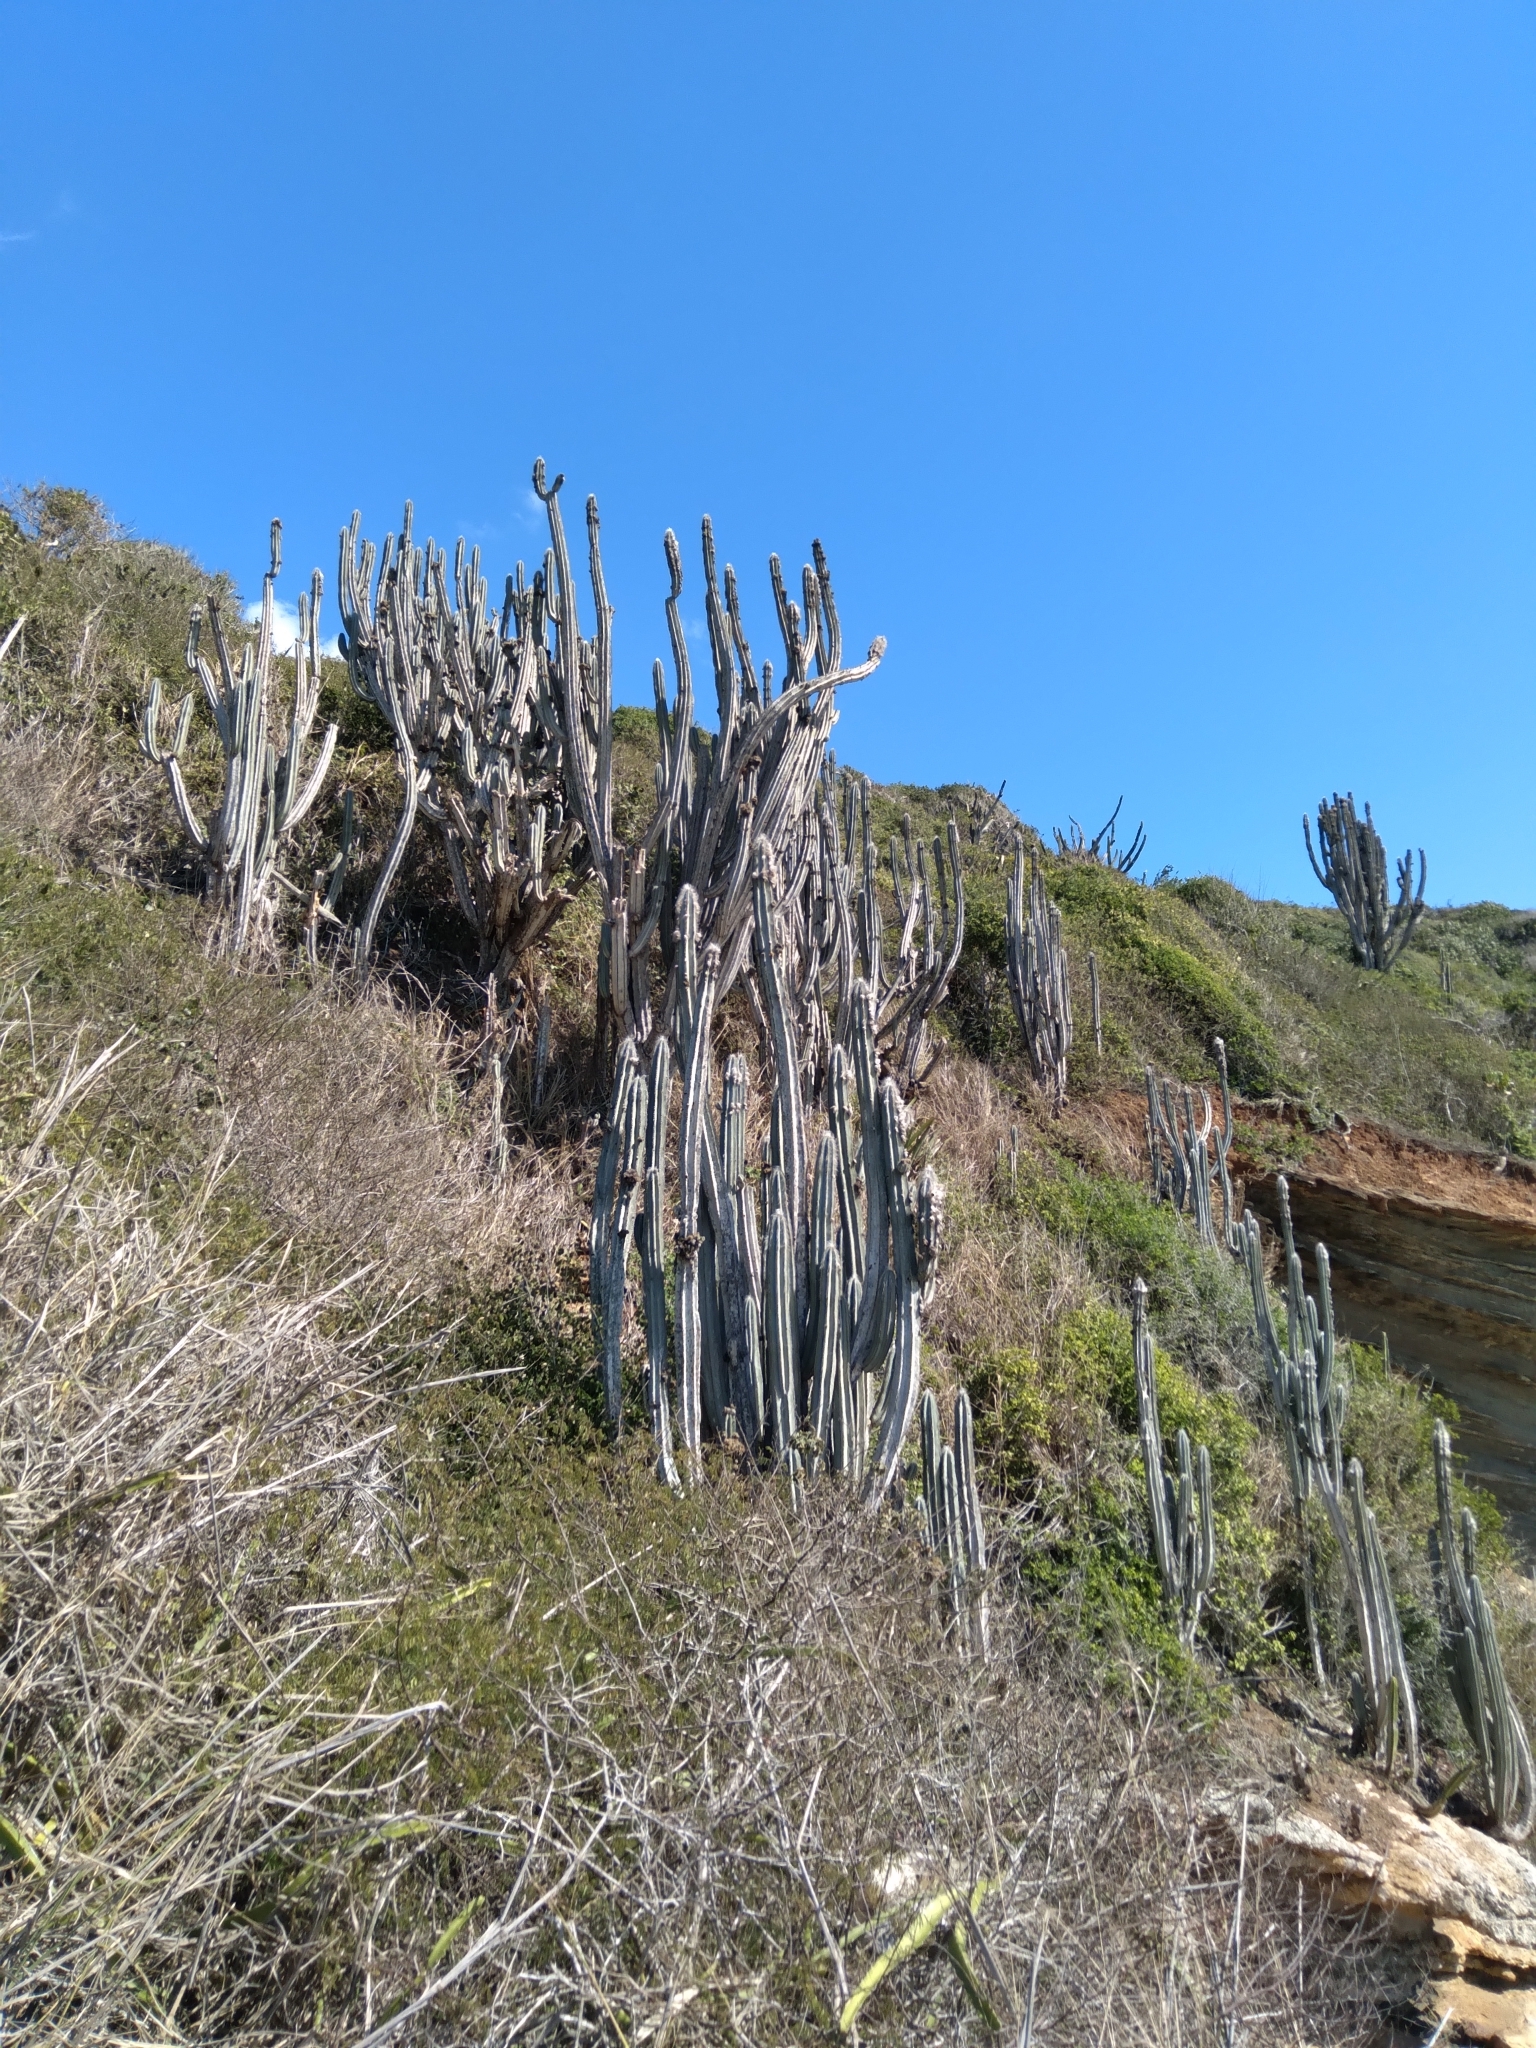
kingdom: Plantae
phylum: Tracheophyta
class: Magnoliopsida
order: Caryophyllales
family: Cactaceae
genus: Pilosocereus
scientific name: Pilosocereus ulei
